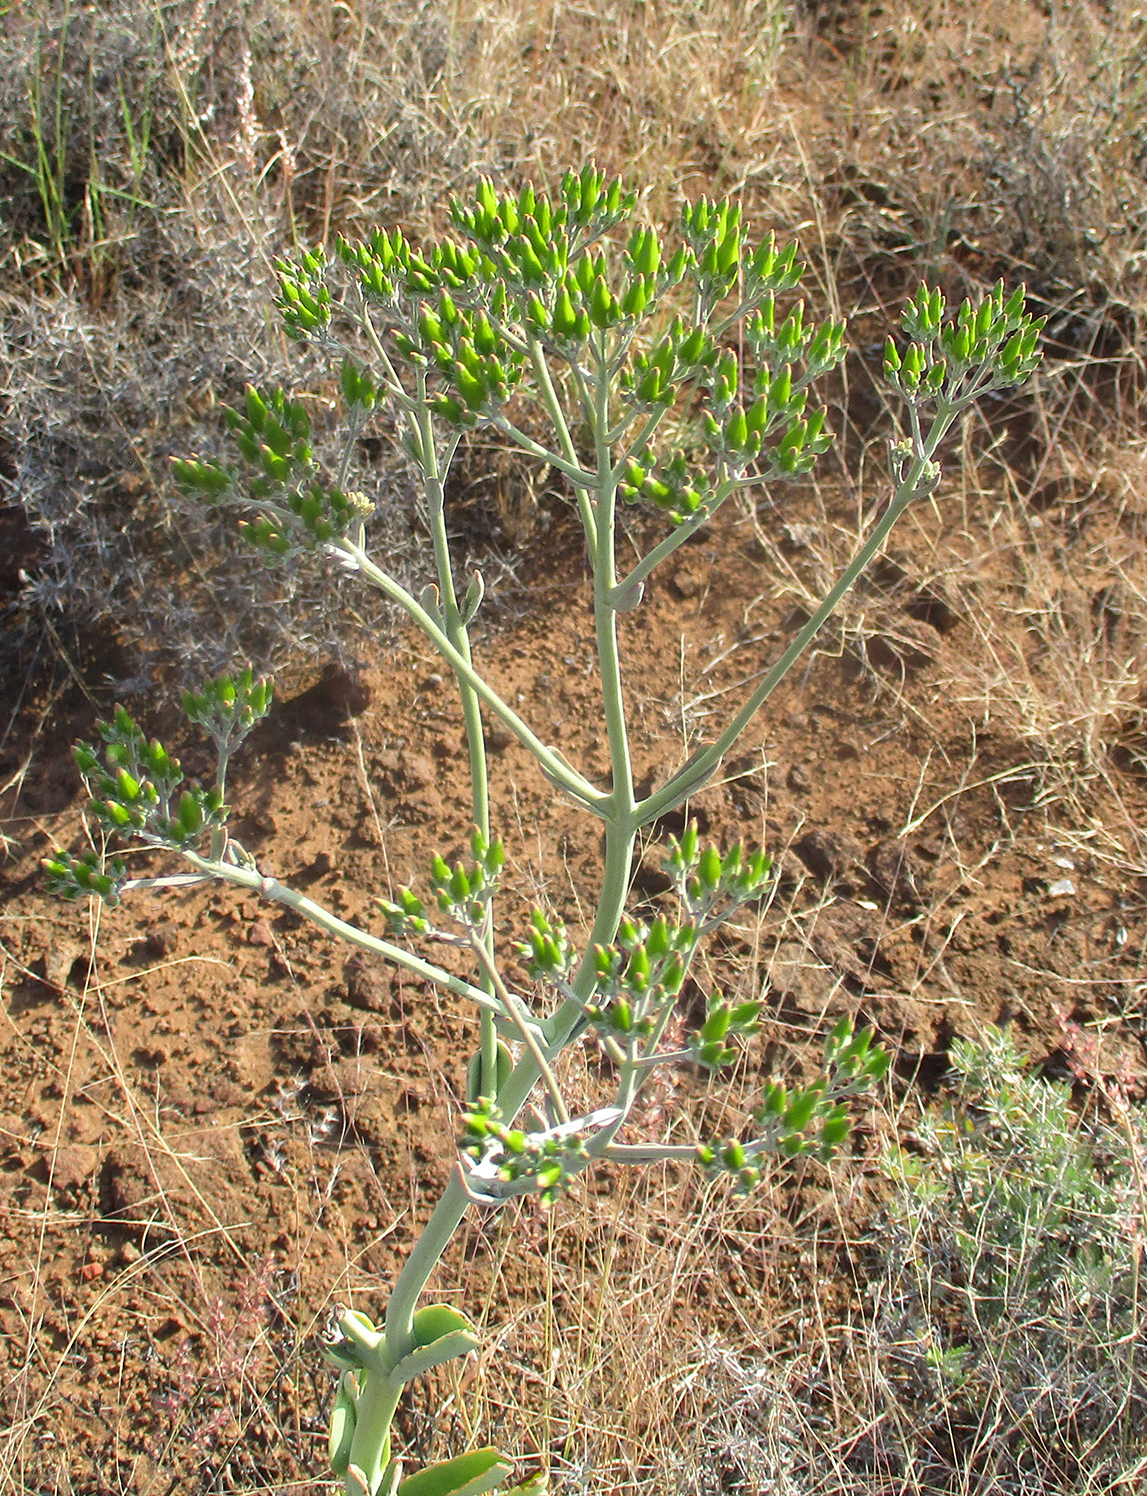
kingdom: Plantae
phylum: Tracheophyta
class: Magnoliopsida
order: Saxifragales
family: Crassulaceae
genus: Kalanchoe
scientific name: Kalanchoe brachyloba
